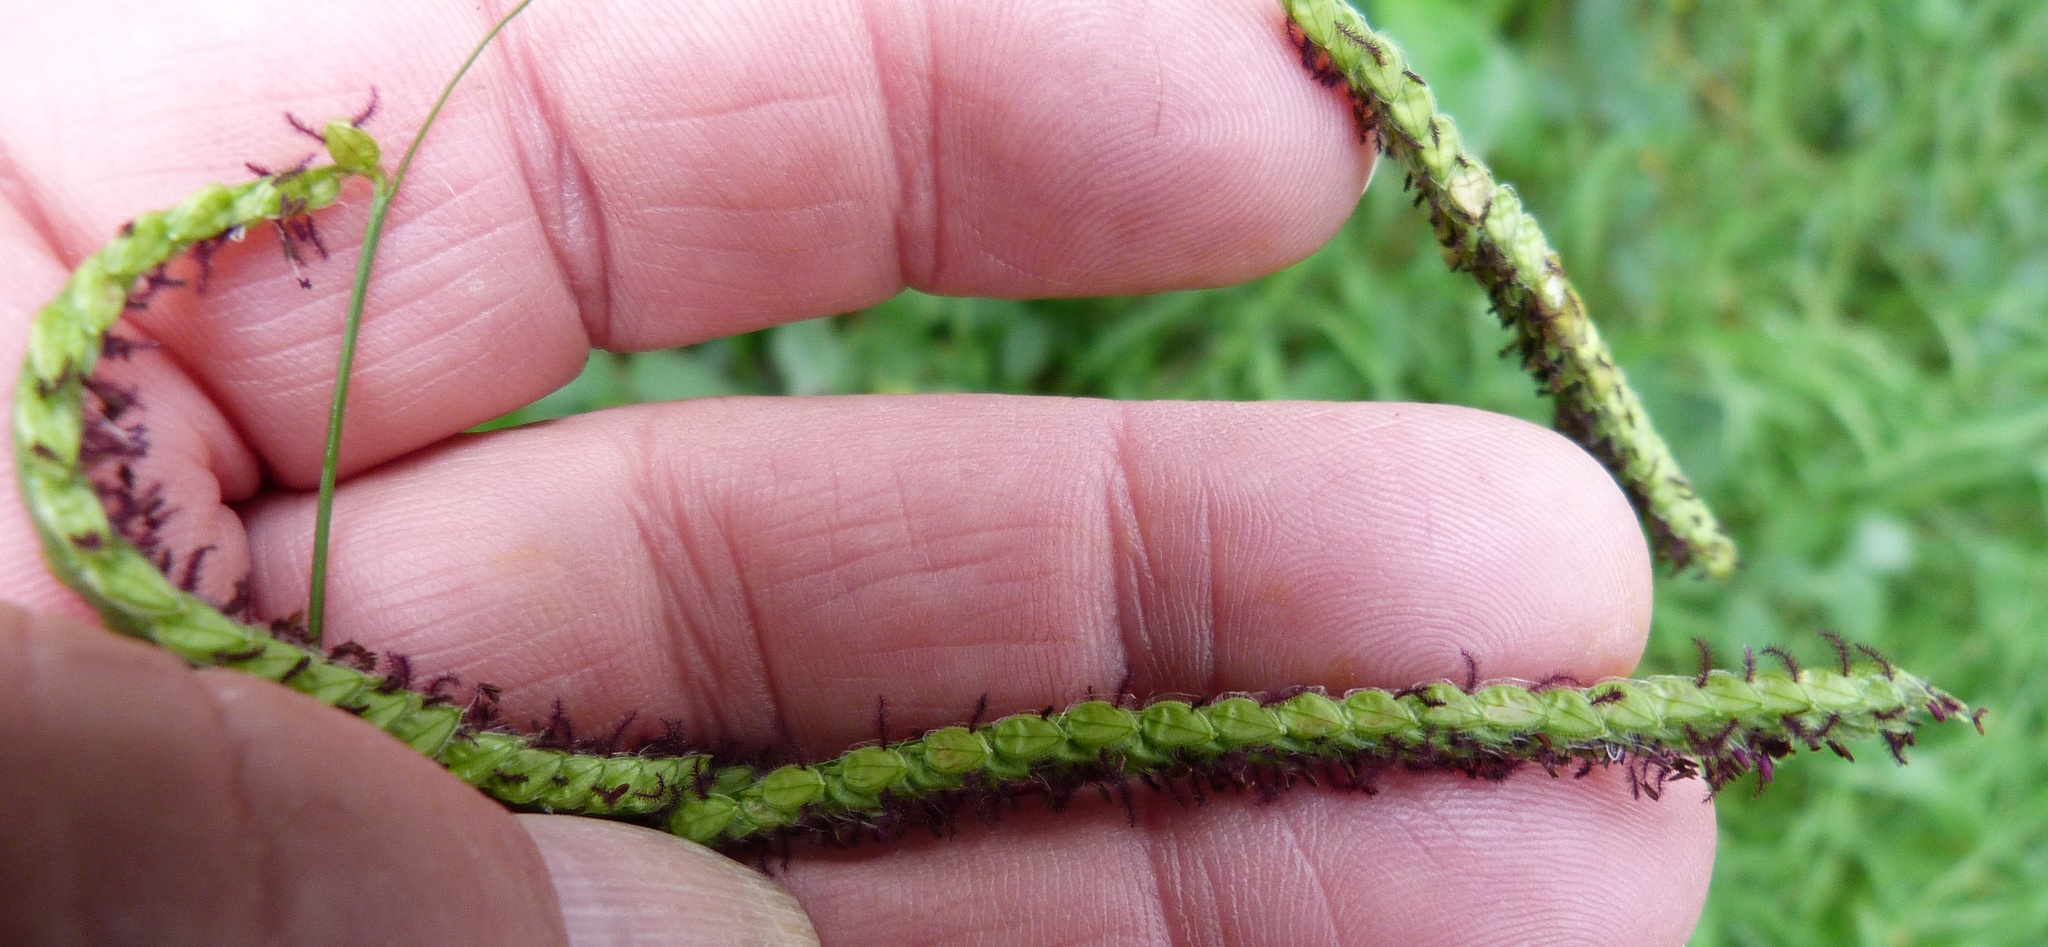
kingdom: Plantae
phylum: Tracheophyta
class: Liliopsida
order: Poales
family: Poaceae
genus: Paspalum
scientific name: Paspalum dilatatum
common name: Dallisgrass
